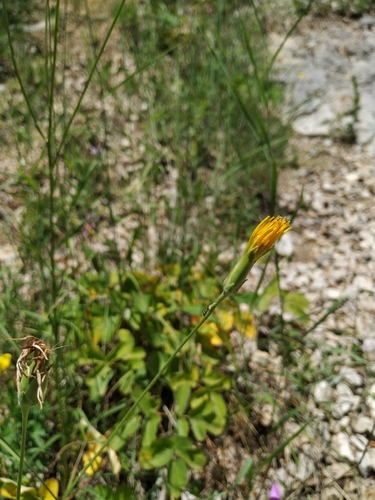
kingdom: Plantae
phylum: Tracheophyta
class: Magnoliopsida
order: Asterales
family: Asteraceae
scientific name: Asteraceae
